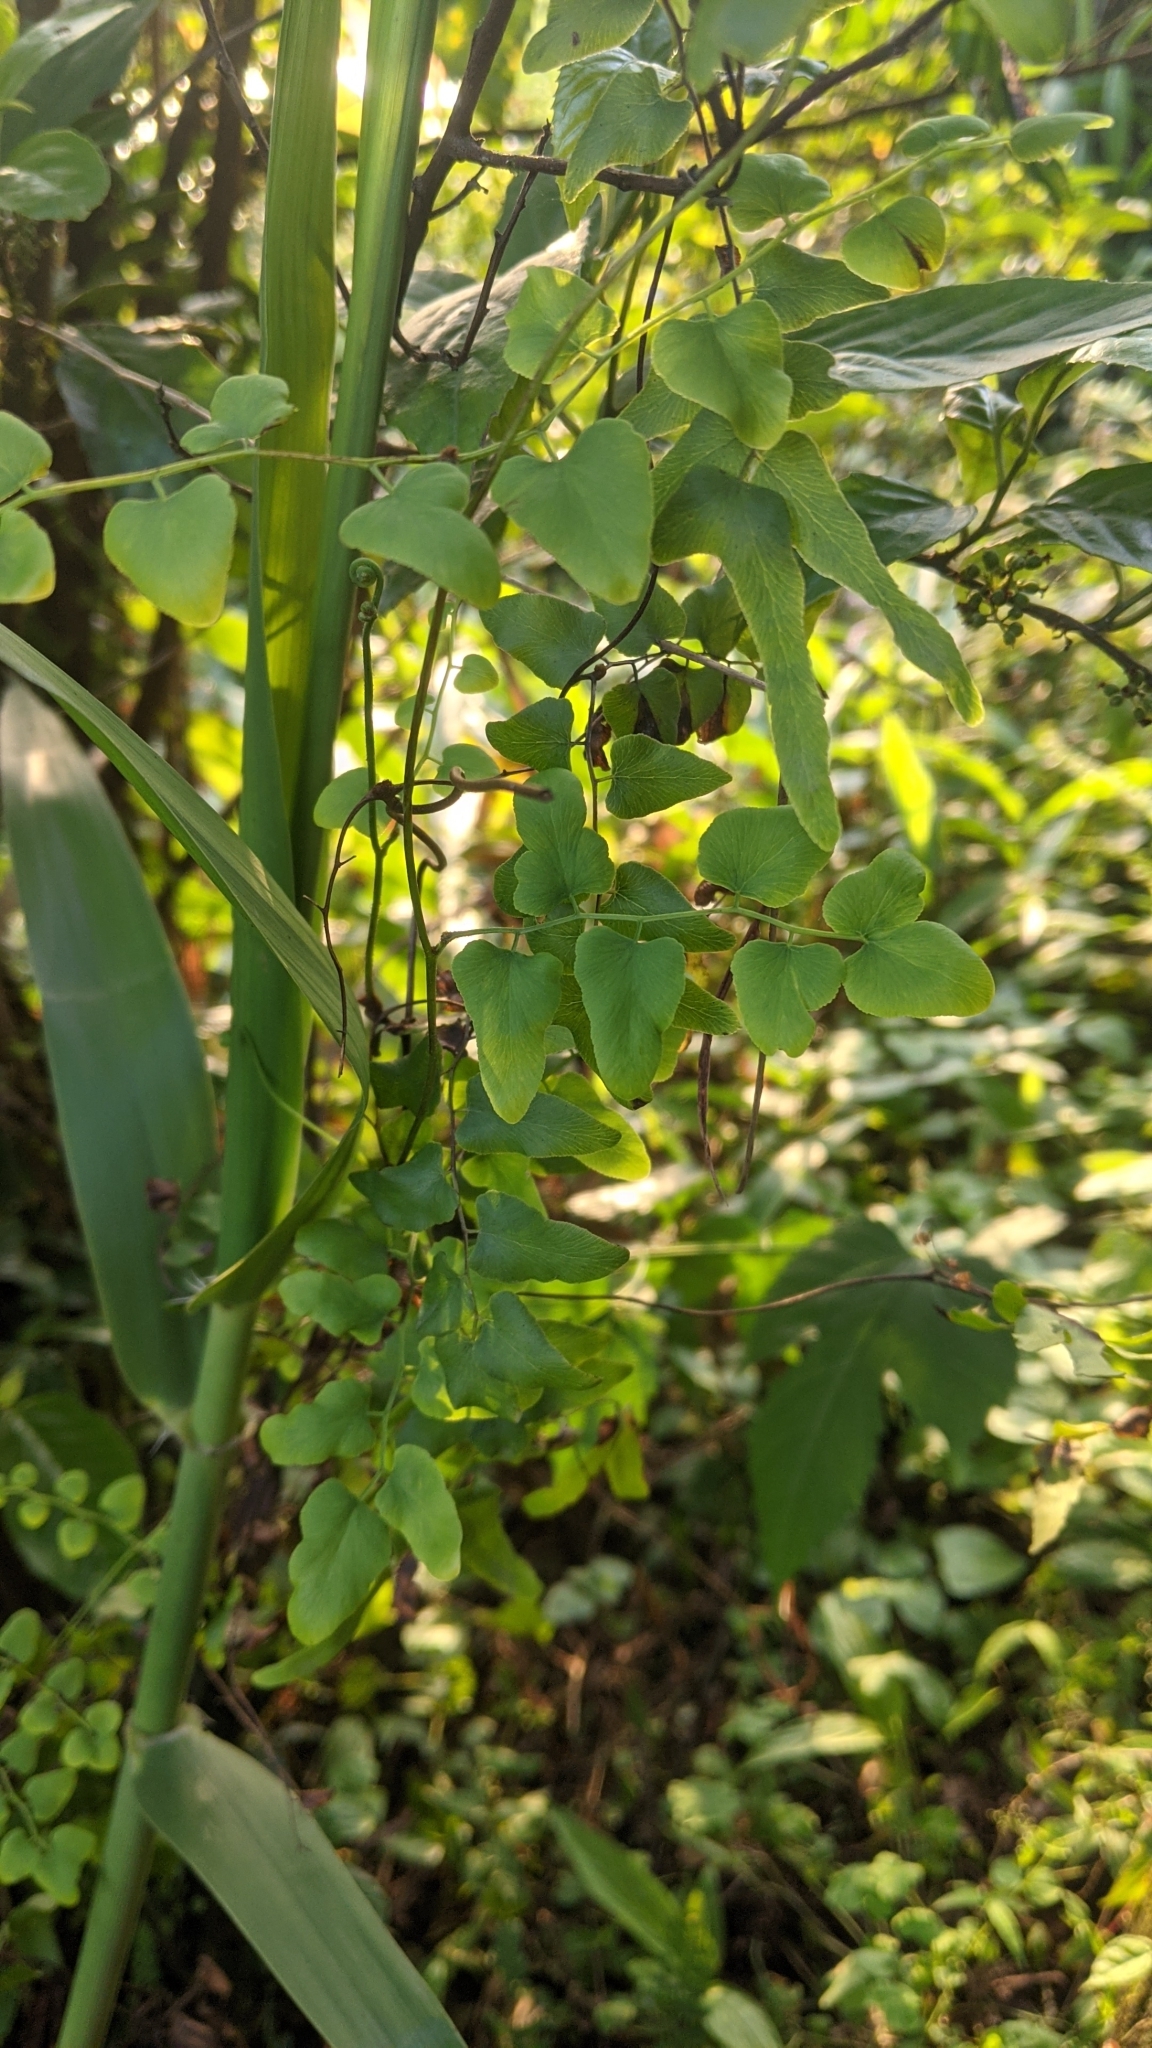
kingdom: Plantae
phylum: Tracheophyta
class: Polypodiopsida
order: Schizaeales
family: Lygodiaceae
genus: Lygodium
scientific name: Lygodium microphyllum
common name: Small-leaf climbing fern
